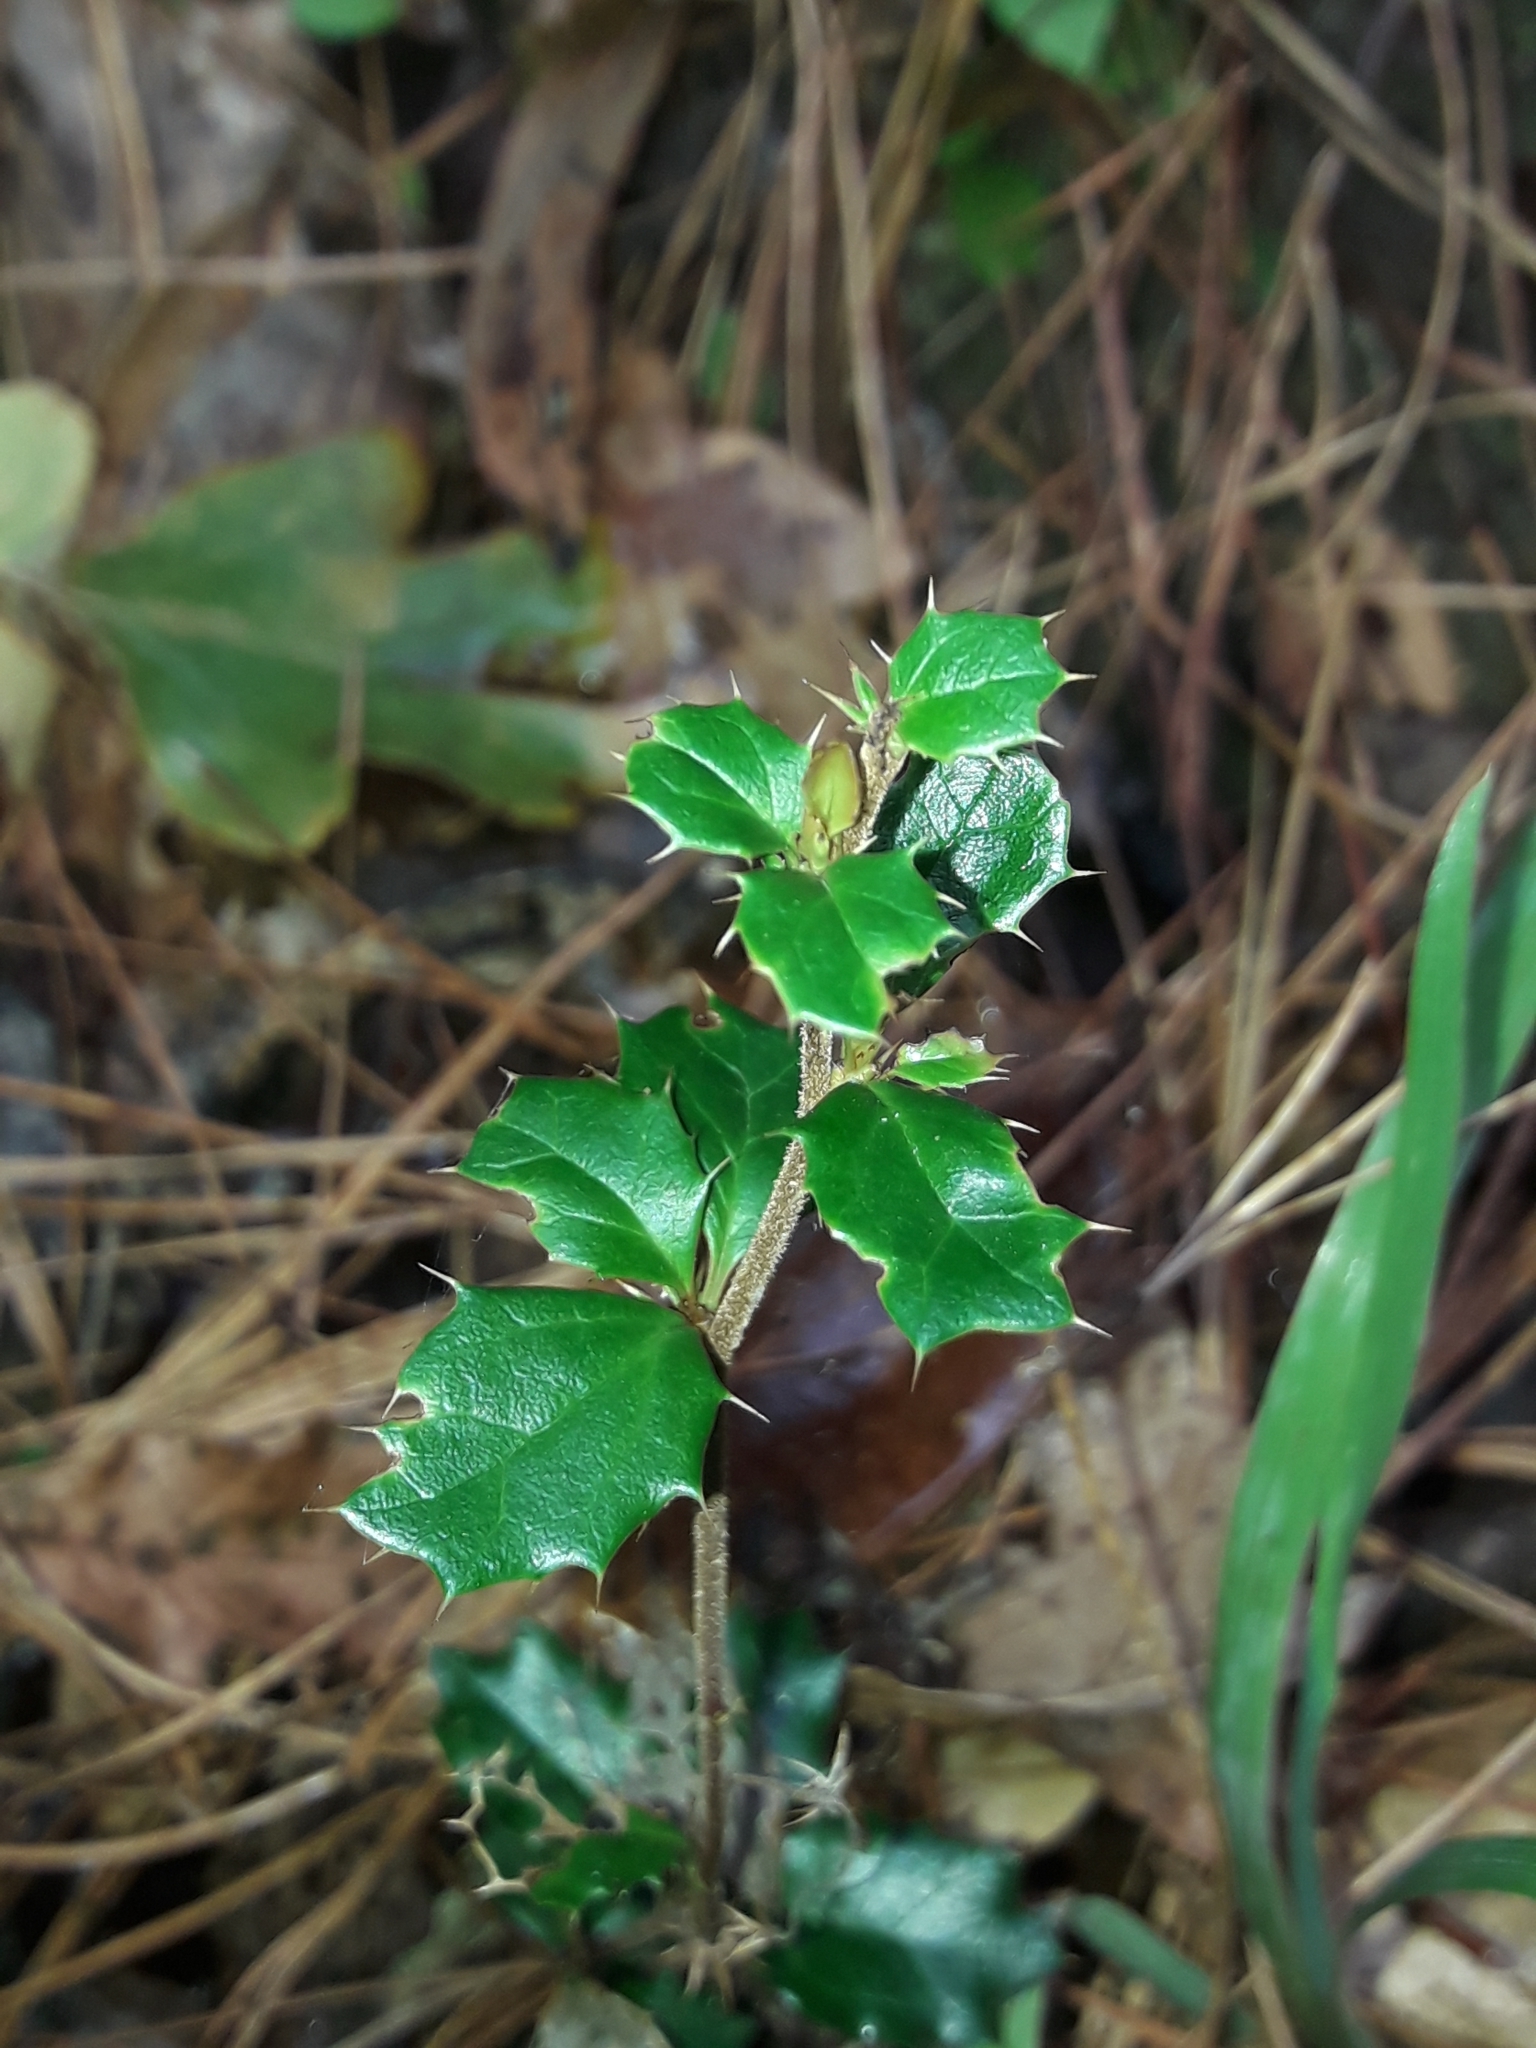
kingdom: Plantae
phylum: Tracheophyta
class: Magnoliopsida
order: Ranunculales
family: Berberidaceae
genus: Berberis
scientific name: Berberis darwinii
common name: Darwin's barberry
